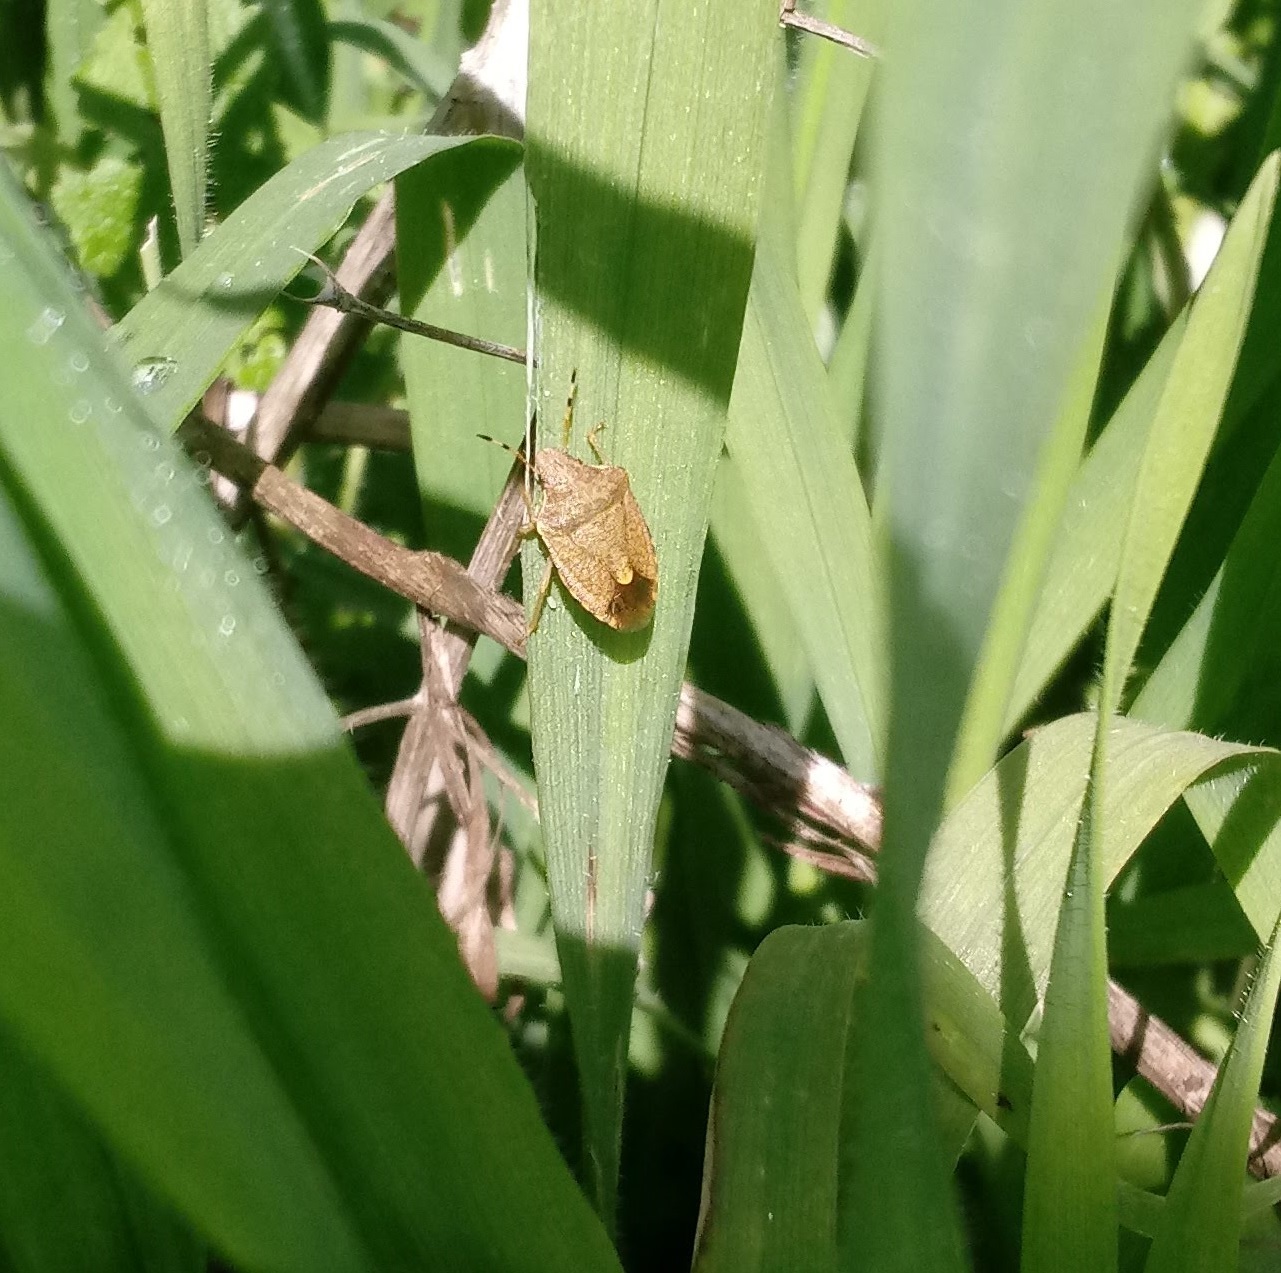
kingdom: Animalia
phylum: Arthropoda
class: Insecta
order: Hemiptera
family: Pentatomidae
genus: Holcostethus
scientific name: Holcostethus strictus
